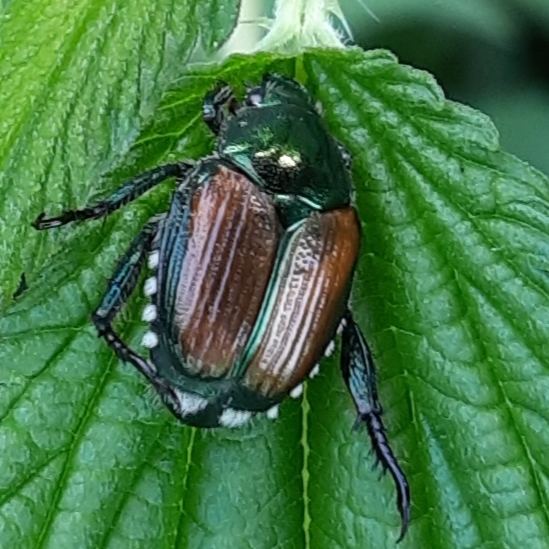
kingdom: Animalia
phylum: Arthropoda
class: Insecta
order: Coleoptera
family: Scarabaeidae
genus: Popillia
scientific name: Popillia japonica
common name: Japanese beetle
